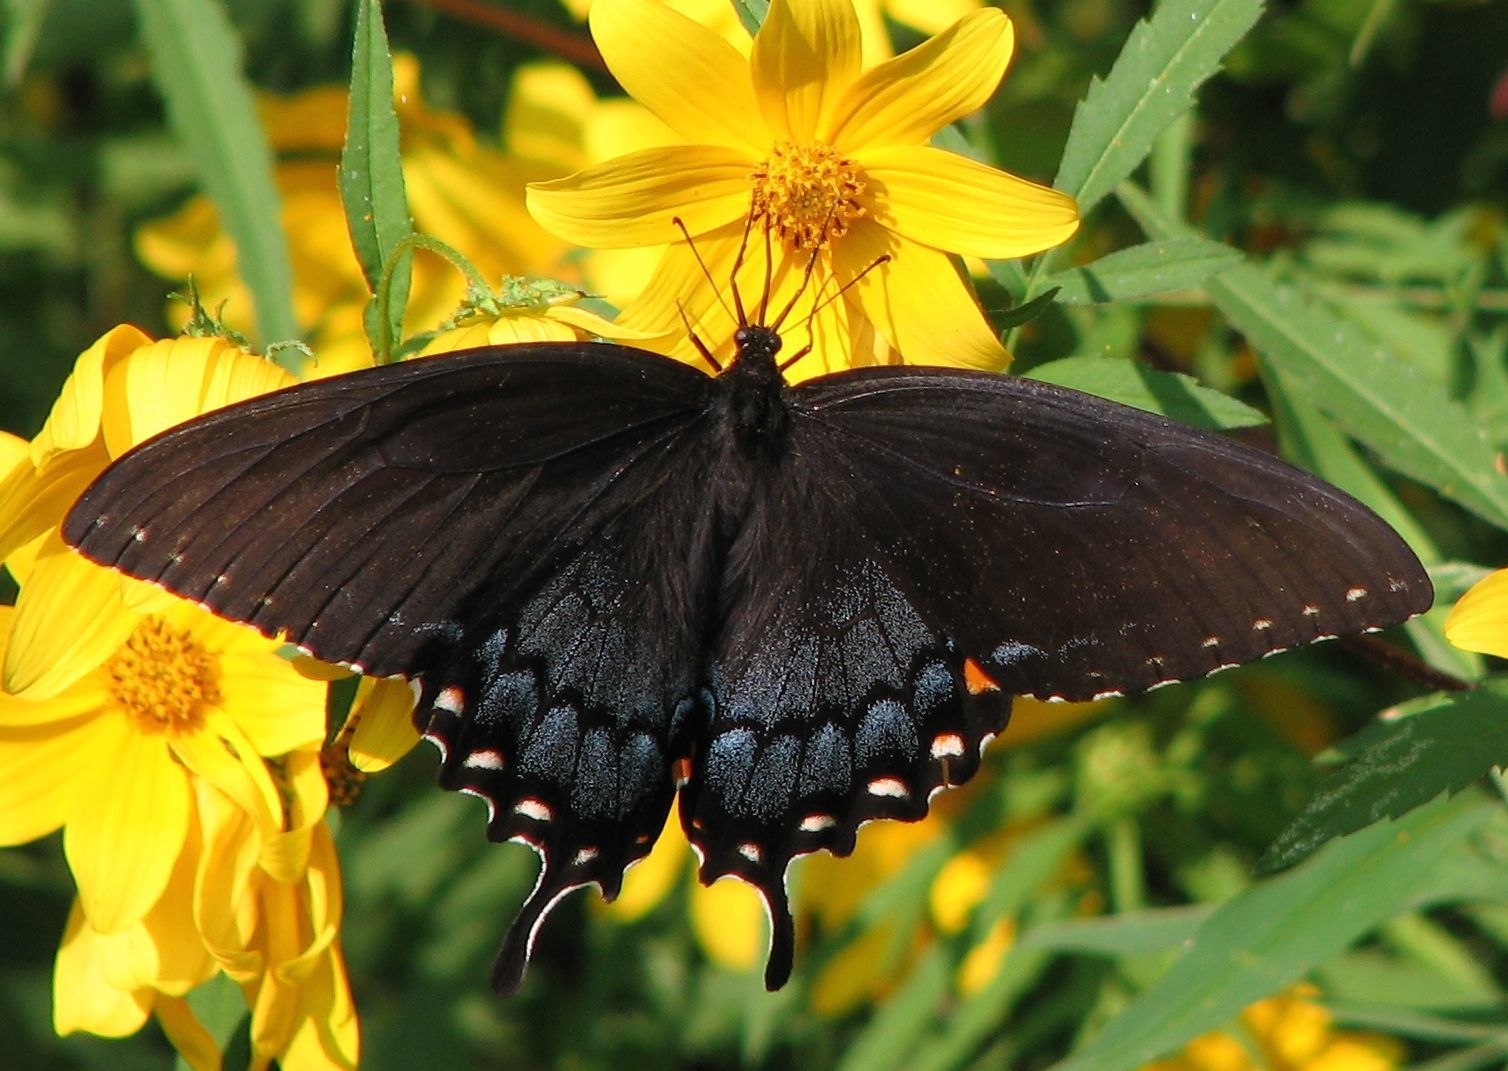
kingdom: Animalia
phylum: Arthropoda
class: Insecta
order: Lepidoptera
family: Papilionidae
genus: Papilio
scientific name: Papilio glaucus
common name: Tiger swallowtail
